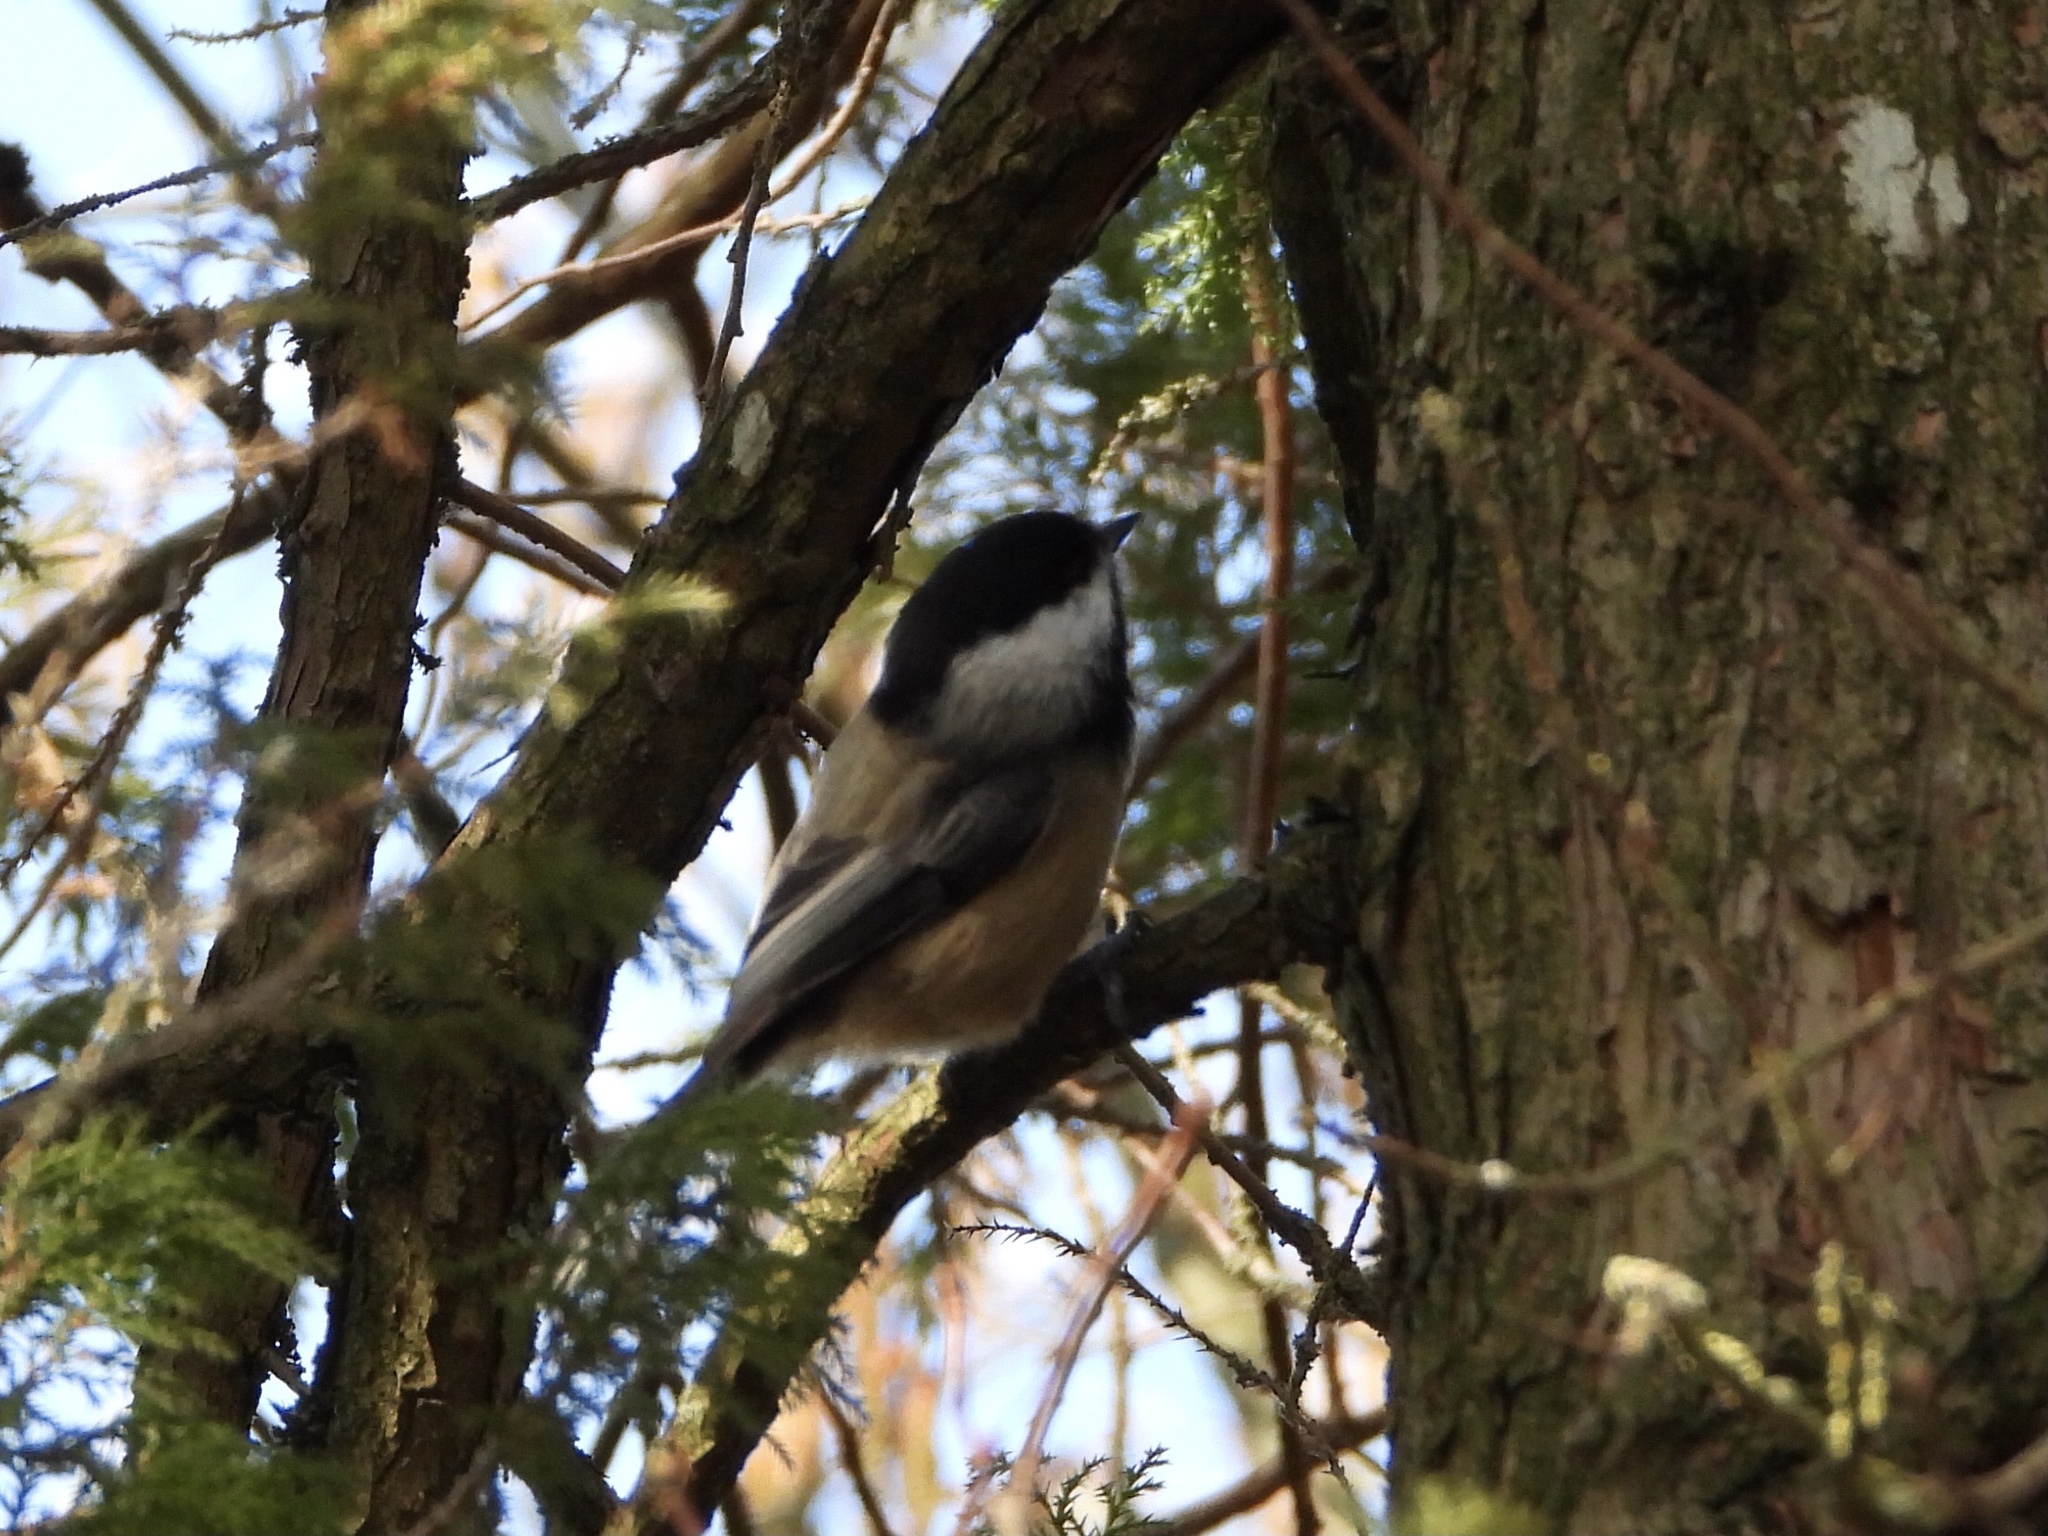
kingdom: Animalia
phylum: Chordata
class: Aves
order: Passeriformes
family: Paridae
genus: Poecile
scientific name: Poecile atricapillus
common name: Black-capped chickadee
